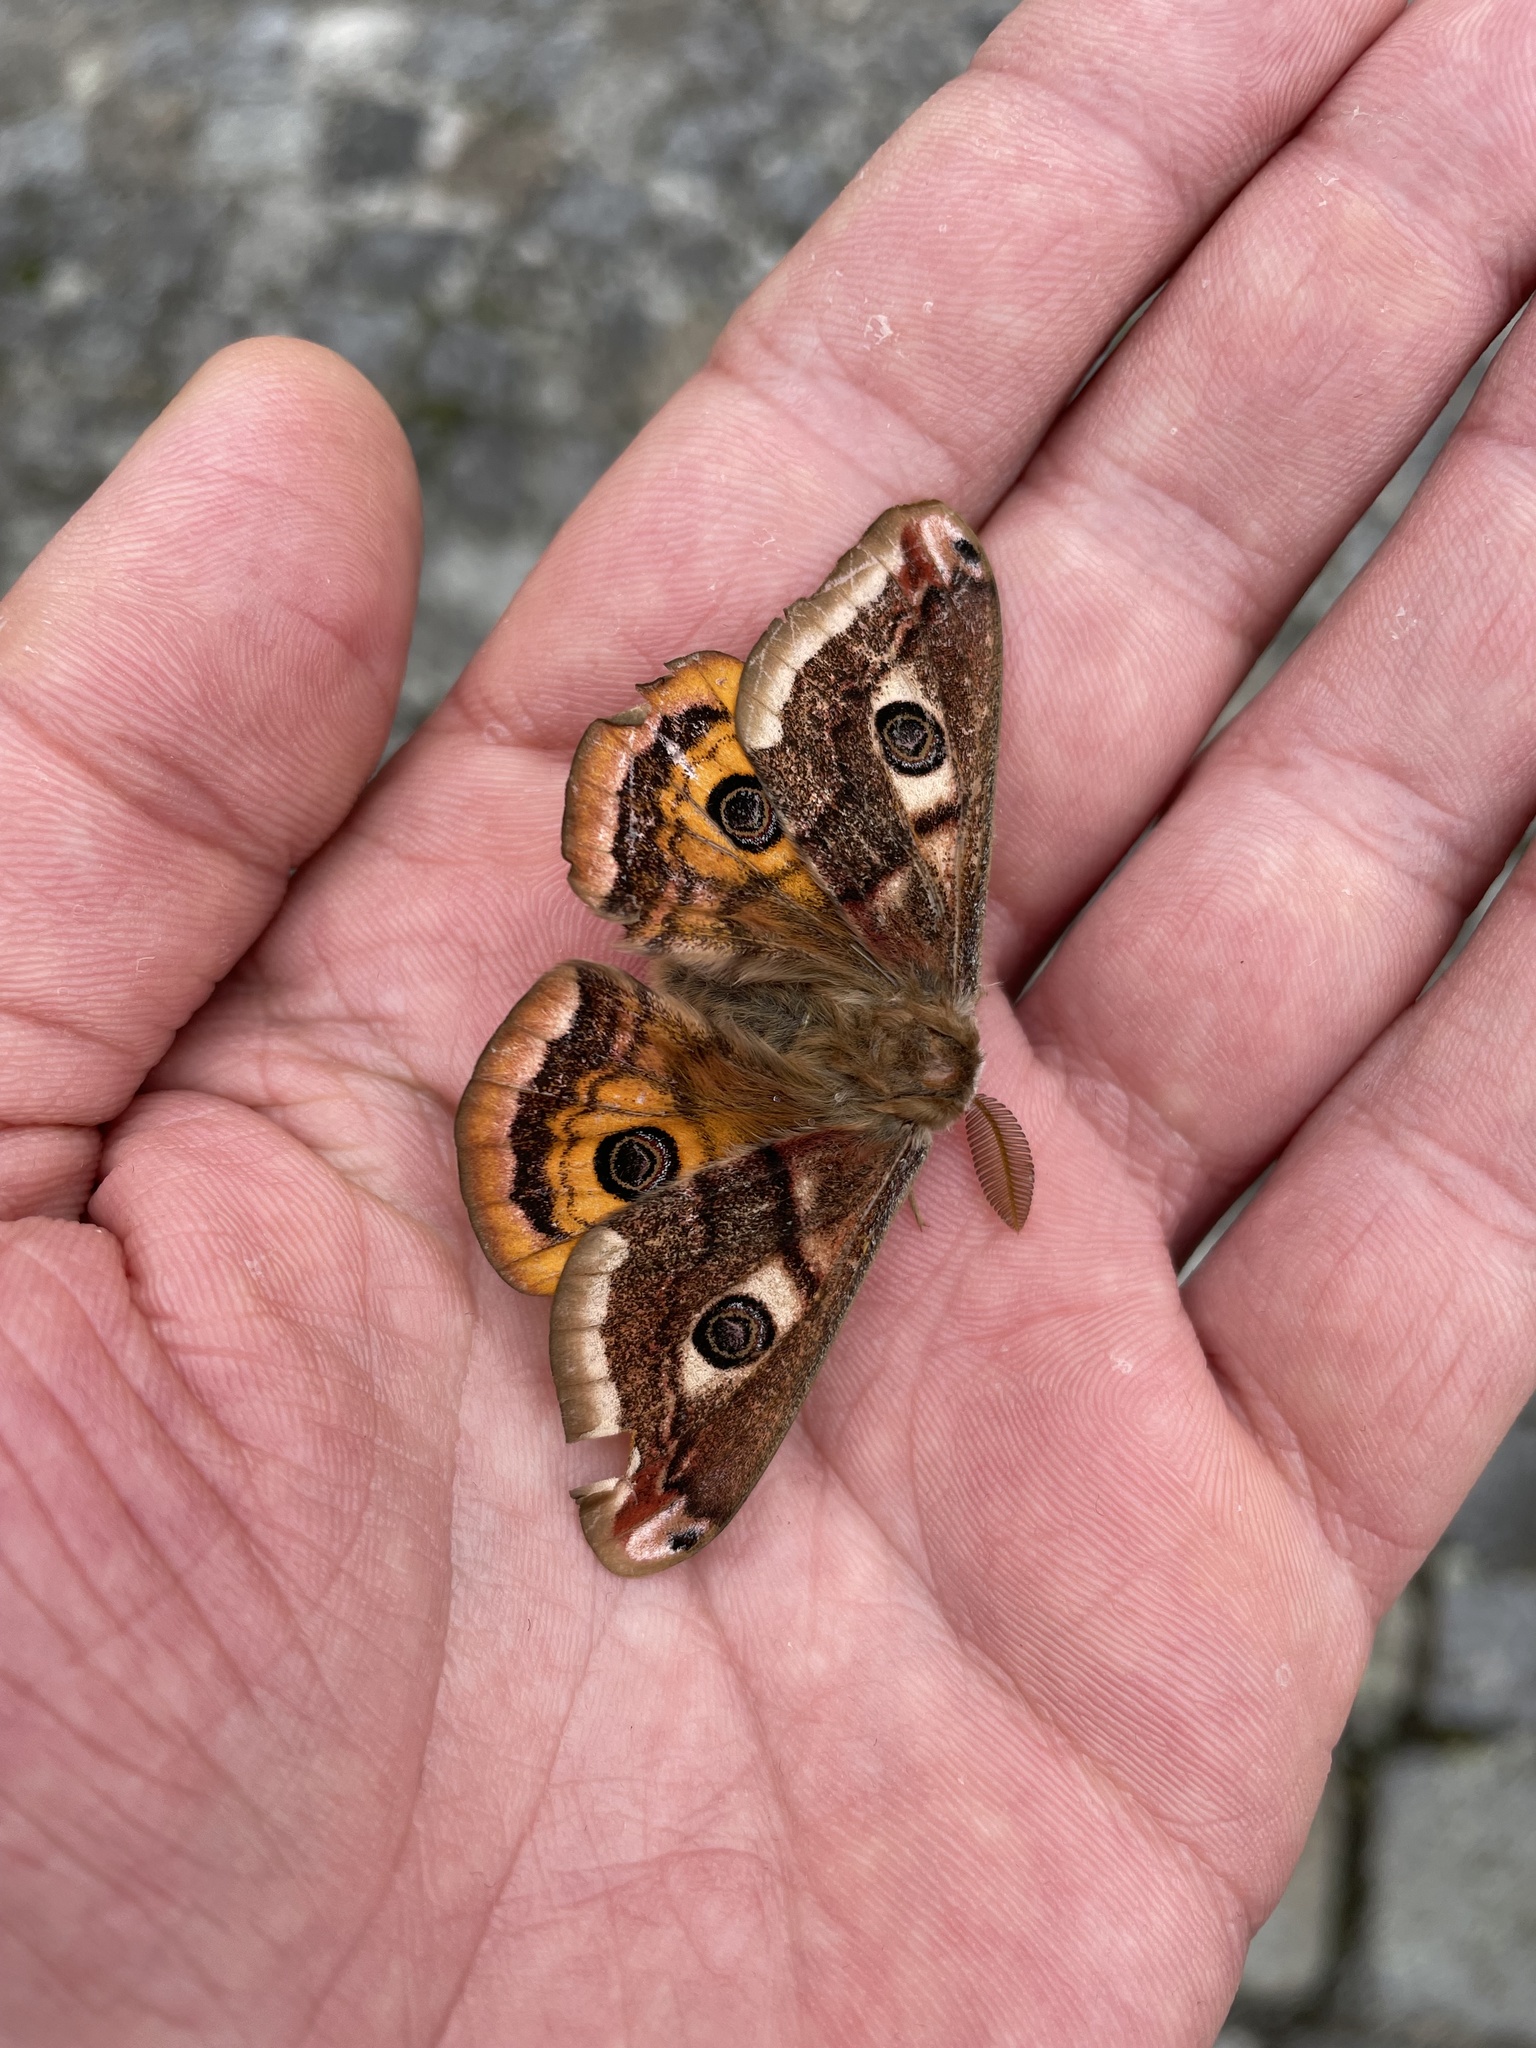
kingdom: Animalia
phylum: Arthropoda
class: Insecta
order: Lepidoptera
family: Saturniidae
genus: Saturnia
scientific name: Saturnia pavonia
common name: Emperor moth
